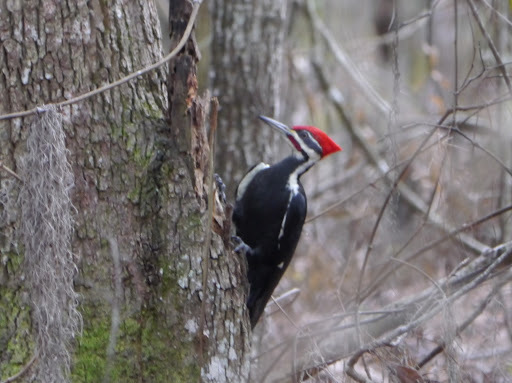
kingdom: Animalia
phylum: Chordata
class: Aves
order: Piciformes
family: Picidae
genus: Dryocopus
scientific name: Dryocopus pileatus
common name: Pileated woodpecker
